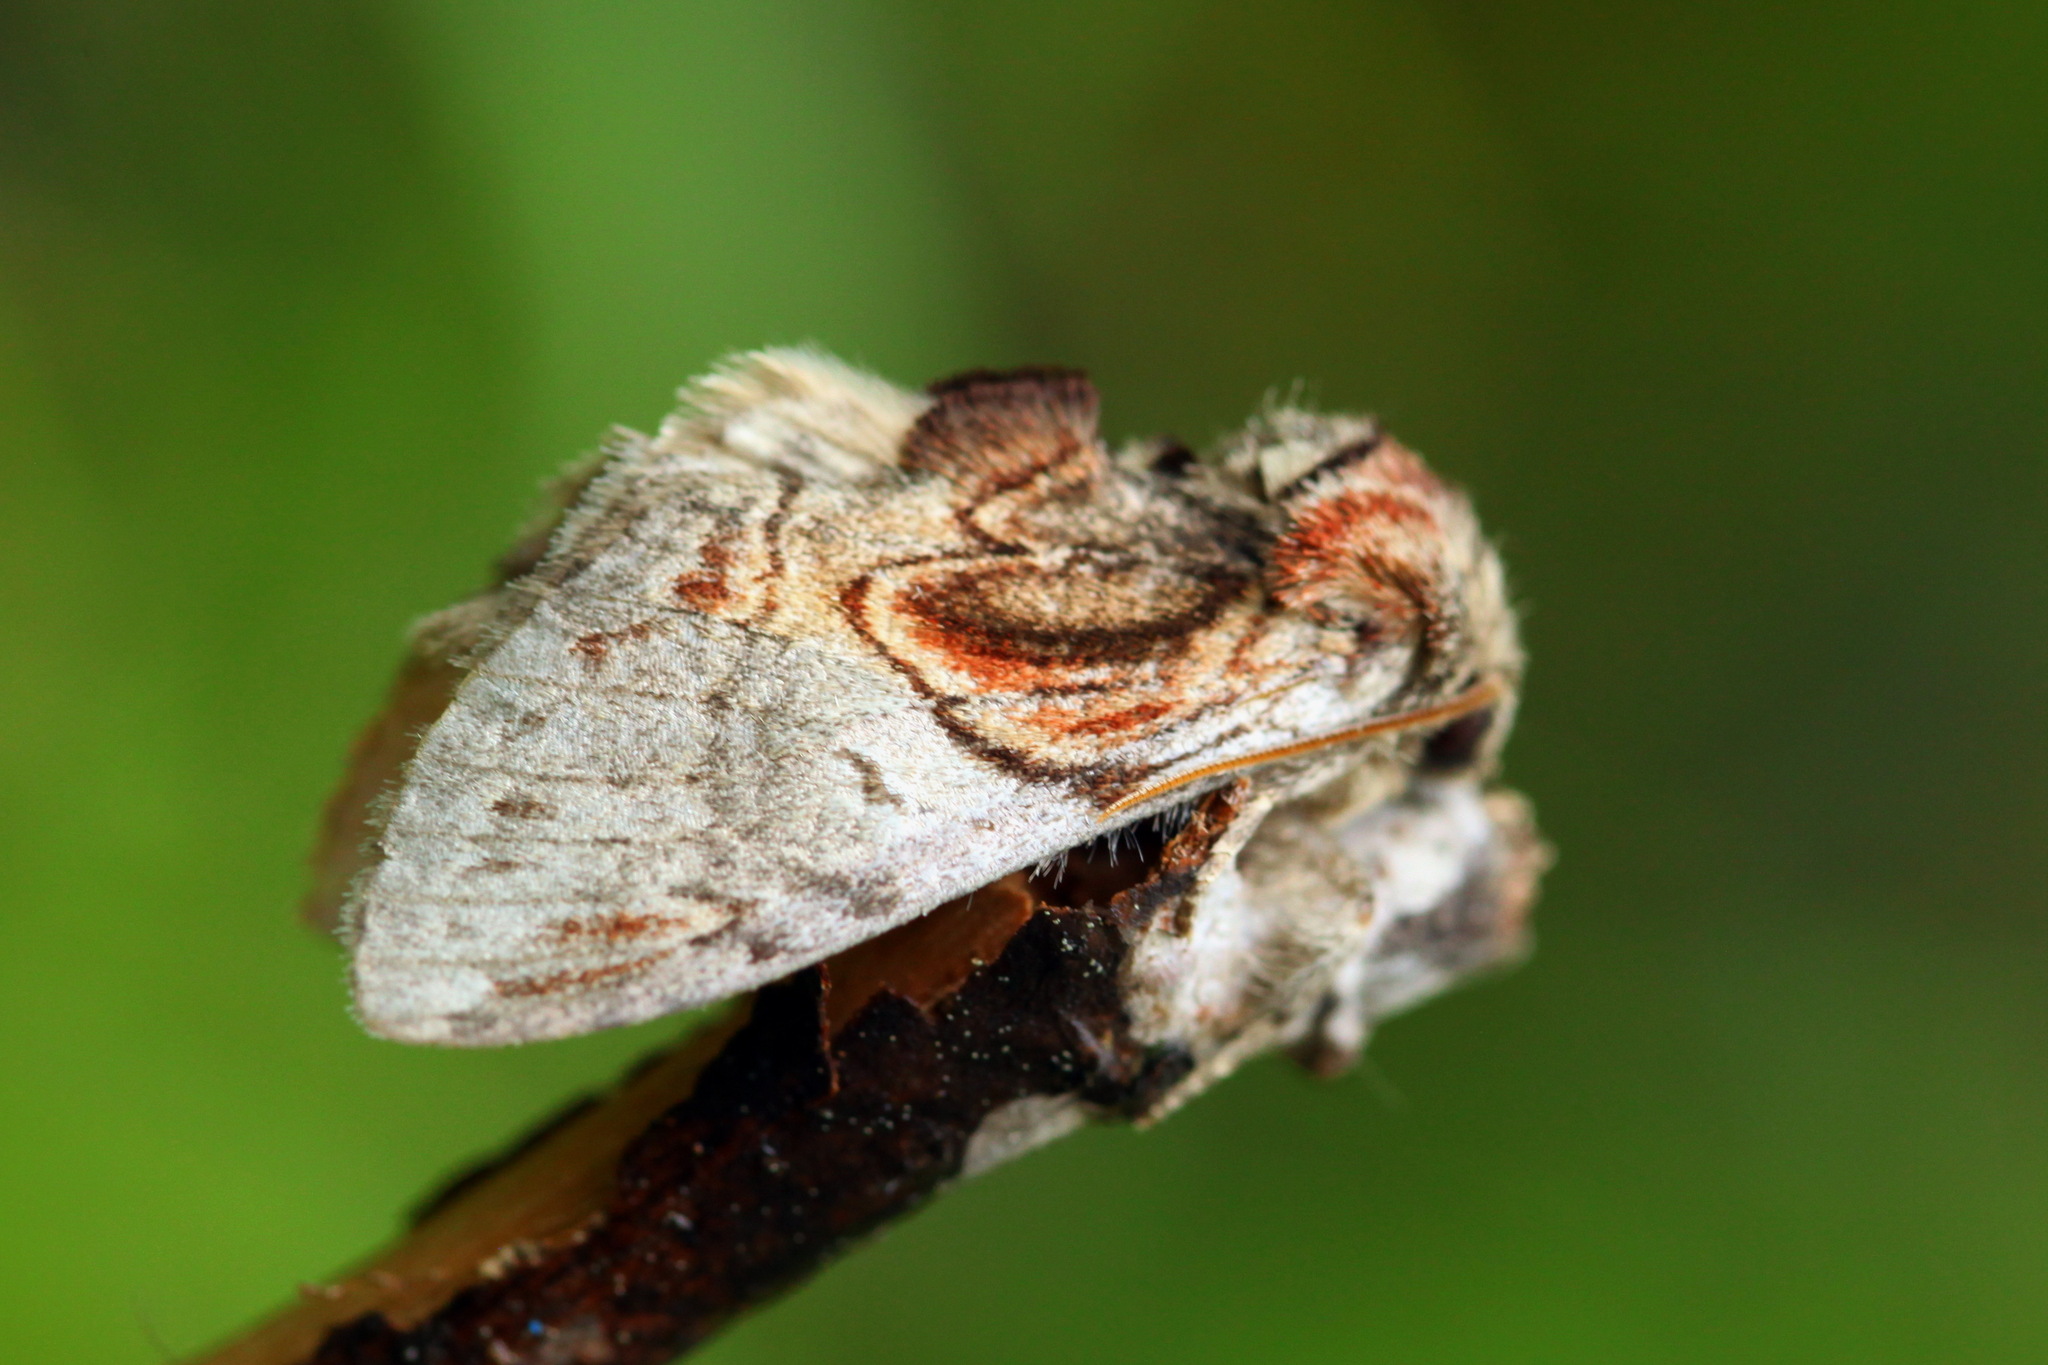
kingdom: Animalia
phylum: Arthropoda
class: Insecta
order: Lepidoptera
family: Notodontidae
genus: Peridea
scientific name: Peridea aliena
